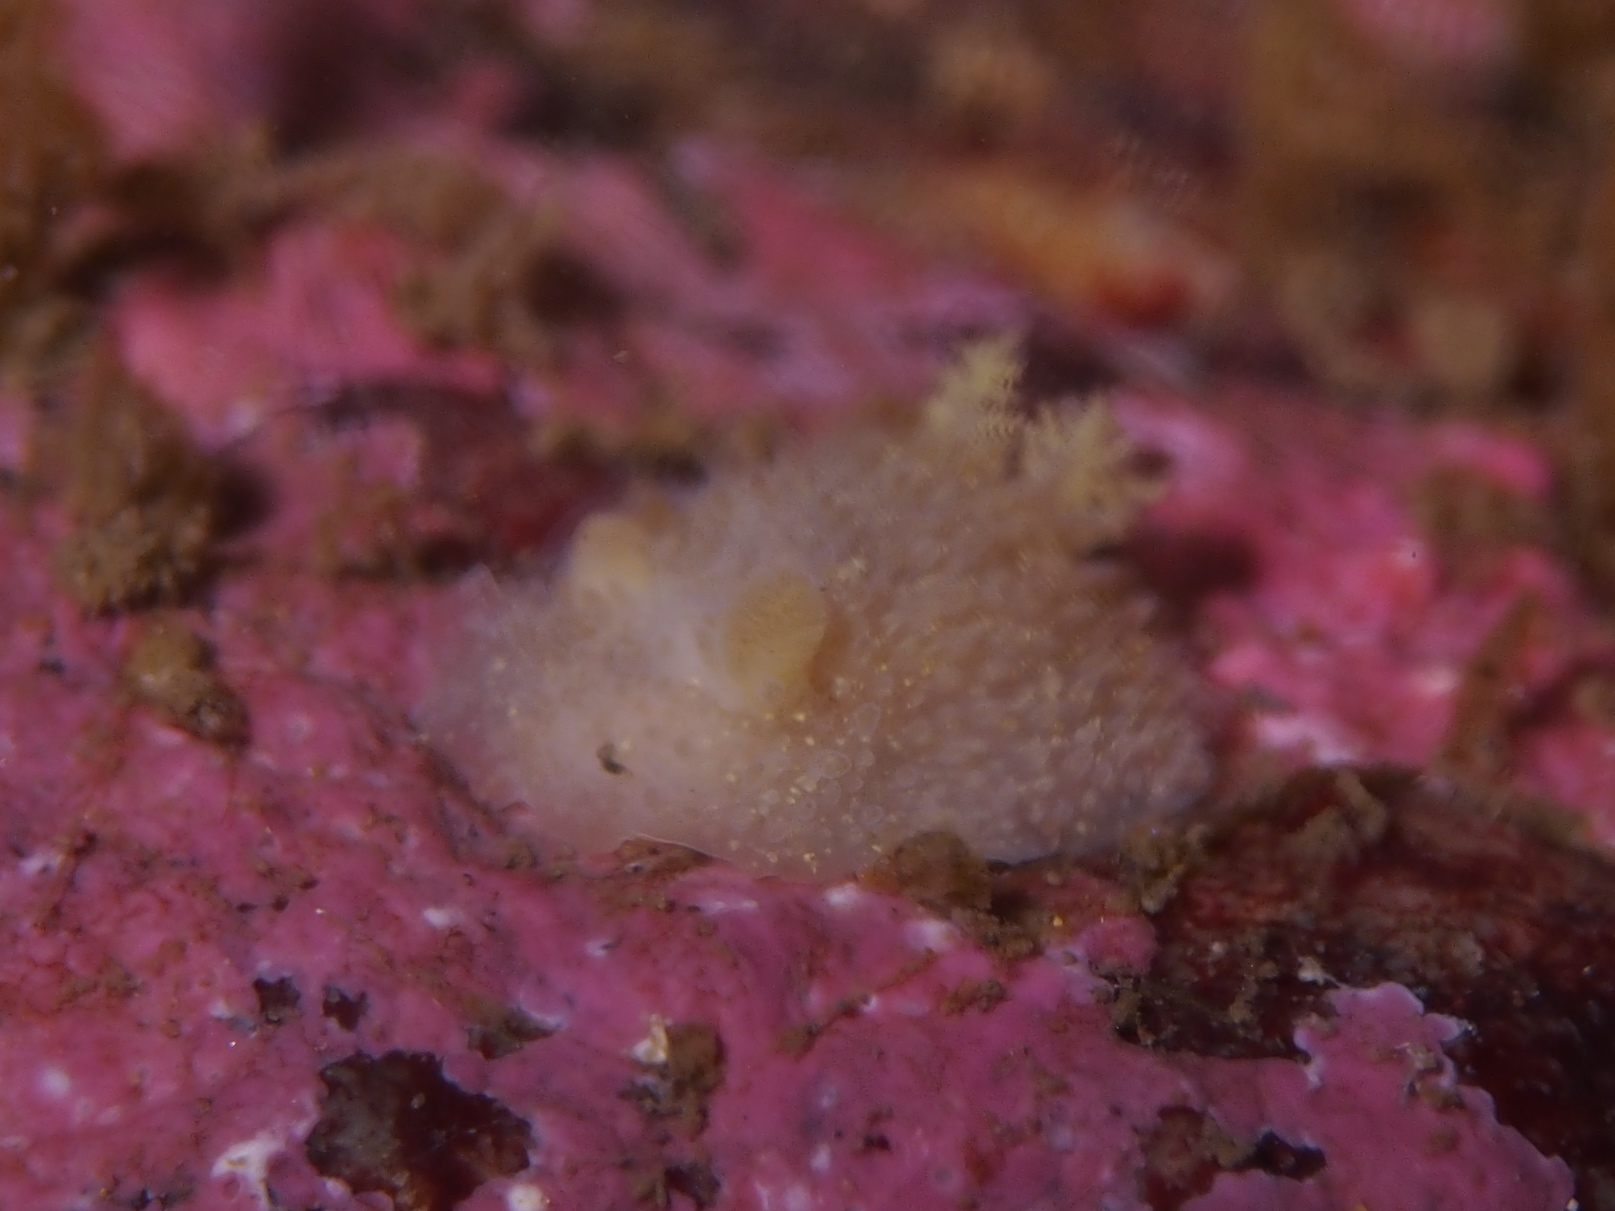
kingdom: Animalia
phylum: Mollusca
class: Gastropoda
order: Nudibranchia
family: Onchidorididae
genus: Acanthodoris
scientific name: Acanthodoris pilosa
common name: Hairy spiny doris
